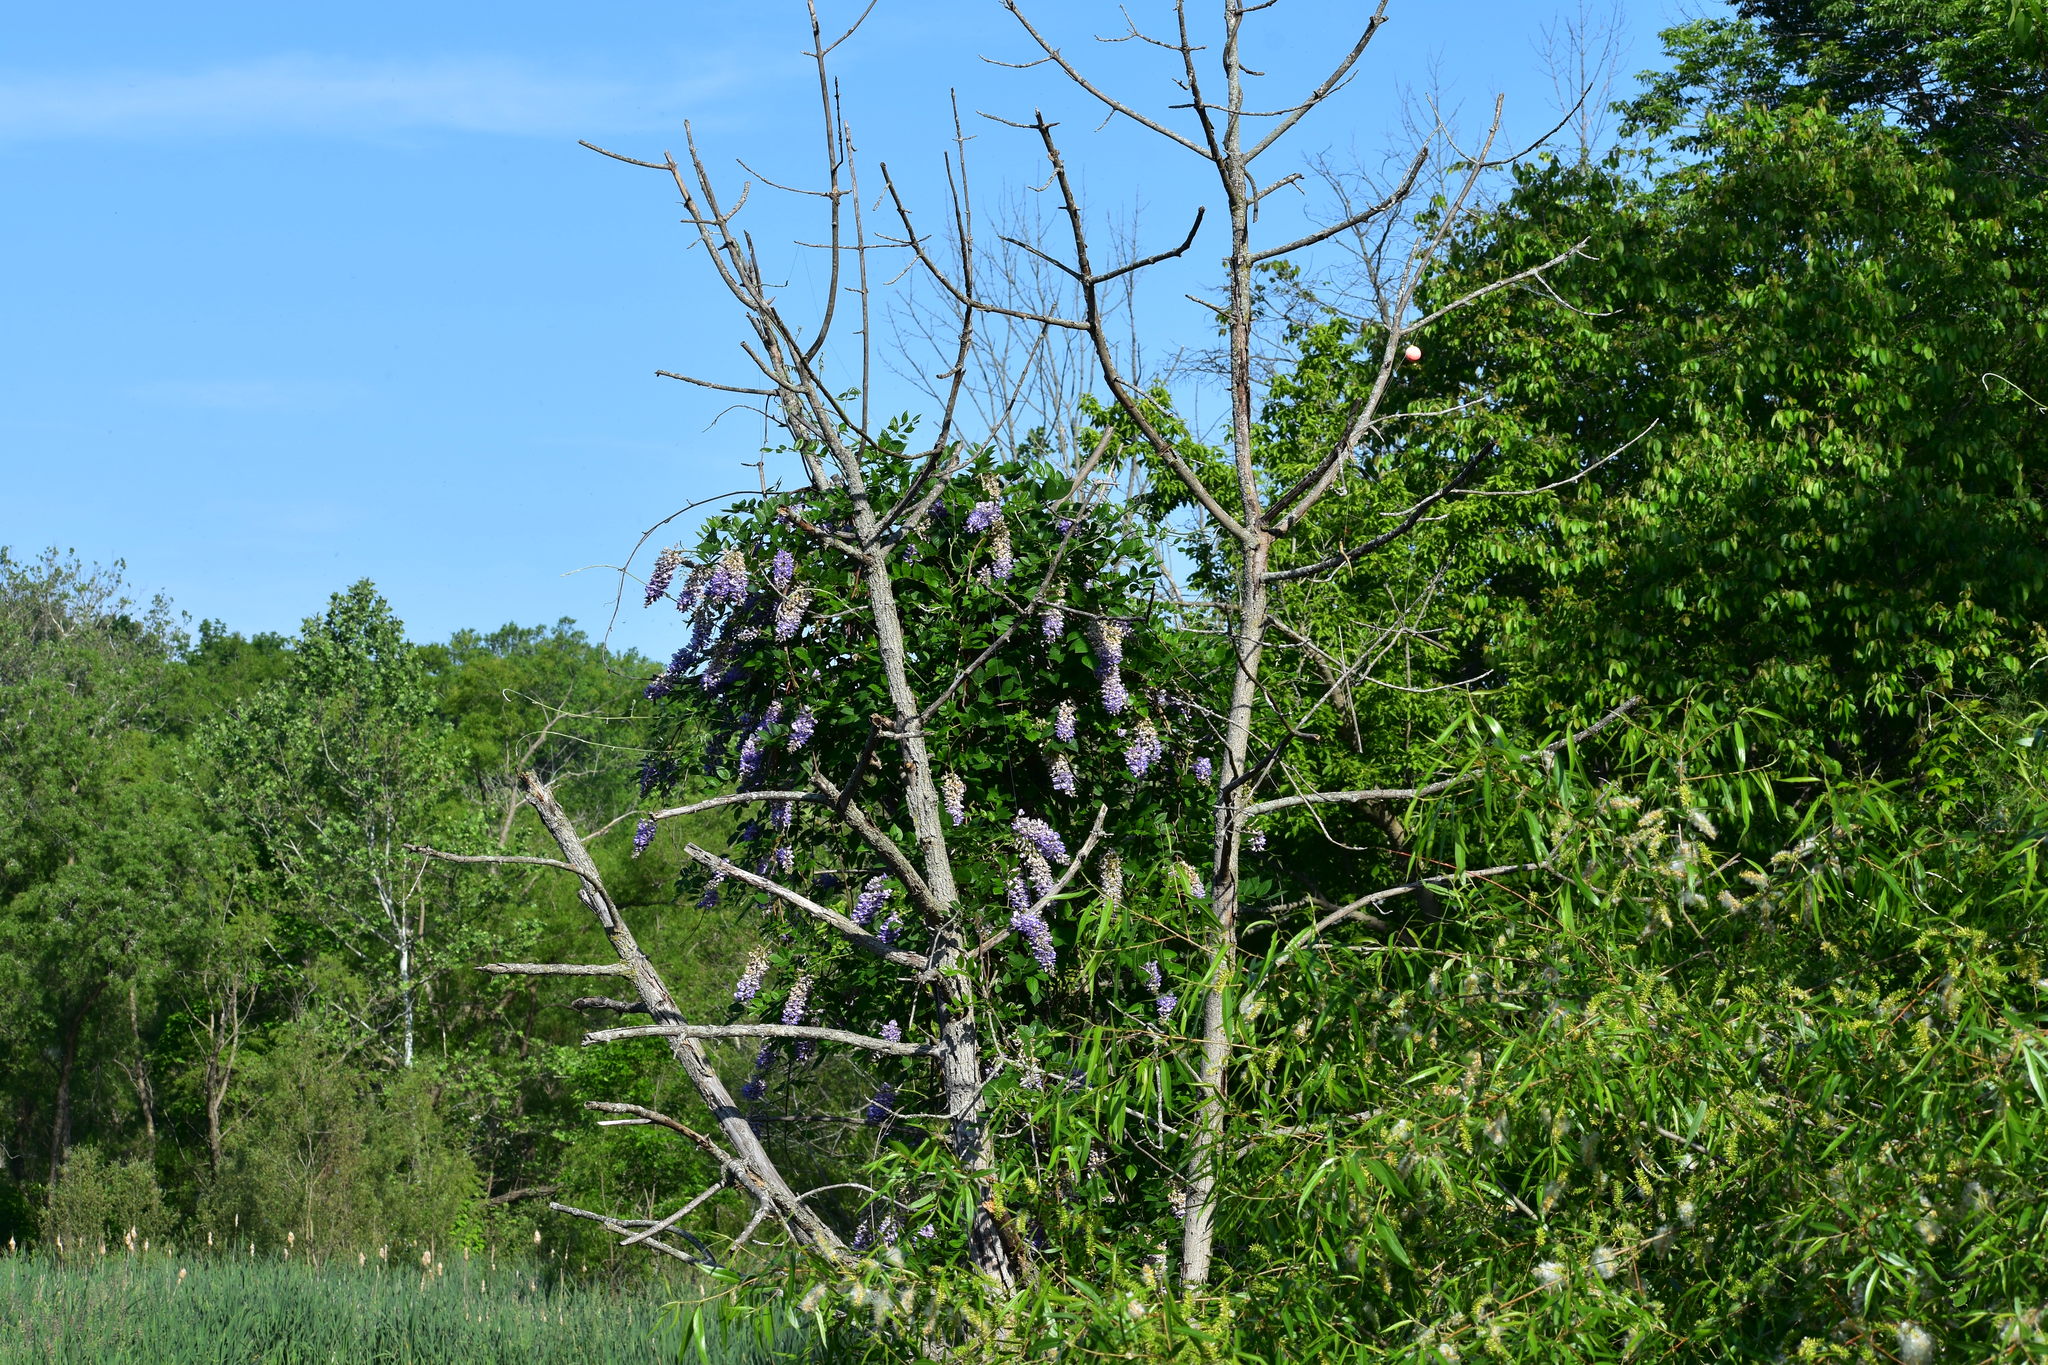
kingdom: Plantae
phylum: Tracheophyta
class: Magnoliopsida
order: Fabales
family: Fabaceae
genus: Wisteria
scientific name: Wisteria frutescens
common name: American wisteria
